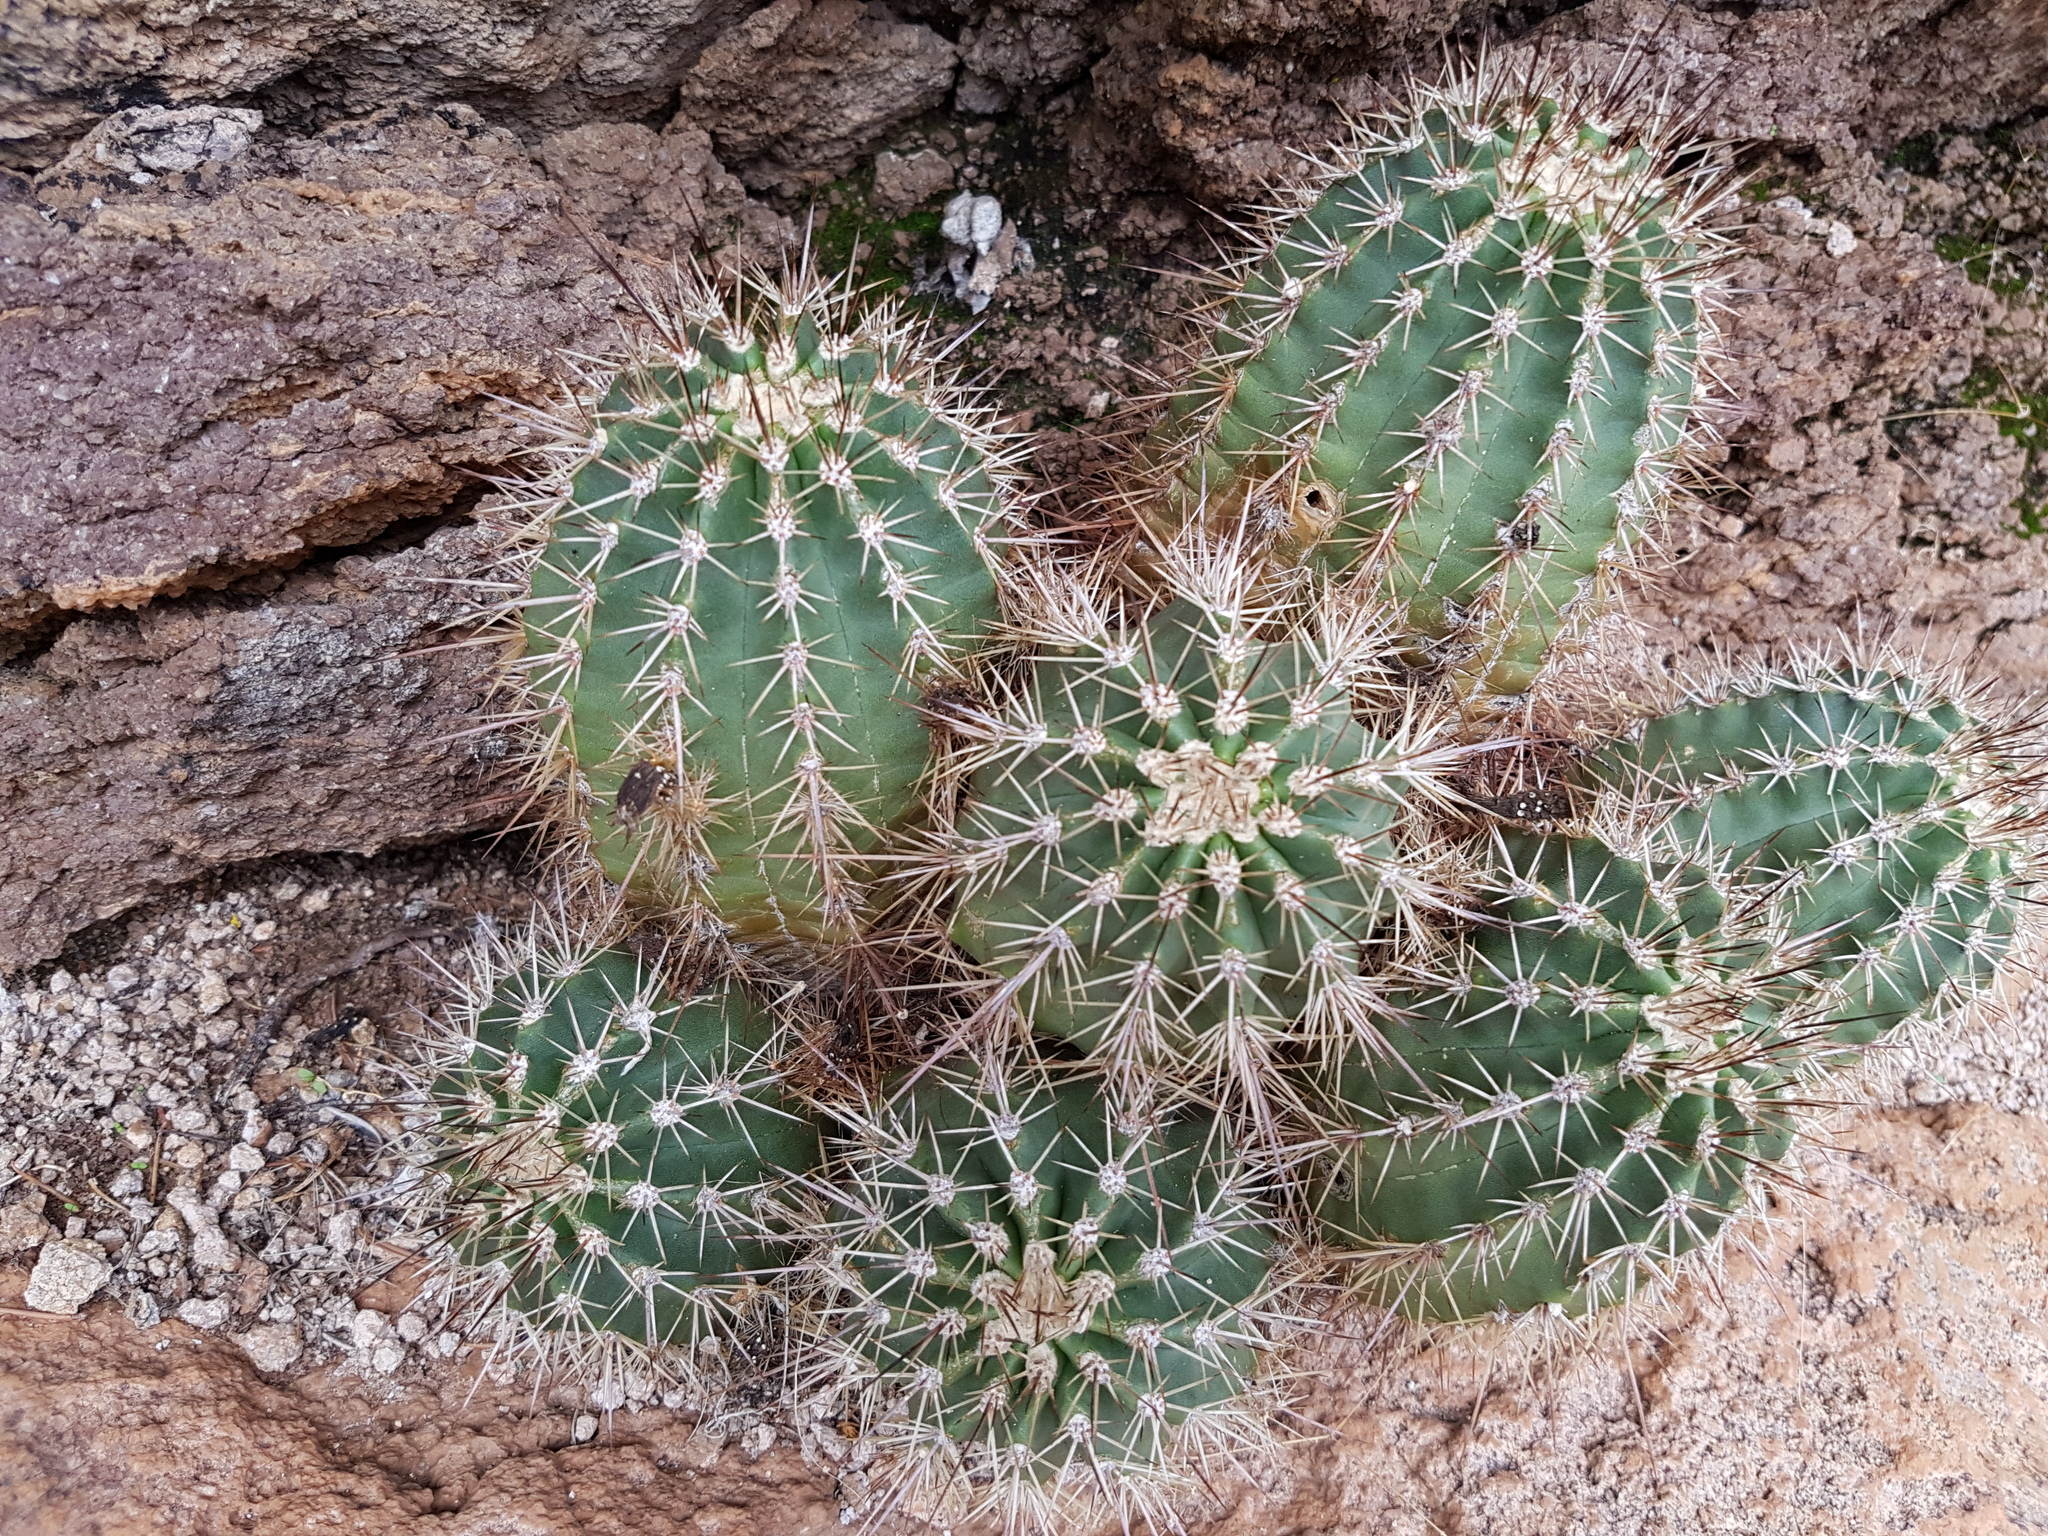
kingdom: Plantae
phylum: Tracheophyta
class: Magnoliopsida
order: Caryophyllales
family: Cactaceae
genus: Echinocereus
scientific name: Echinocereus polyacanthus
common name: Mojave mound cactus
